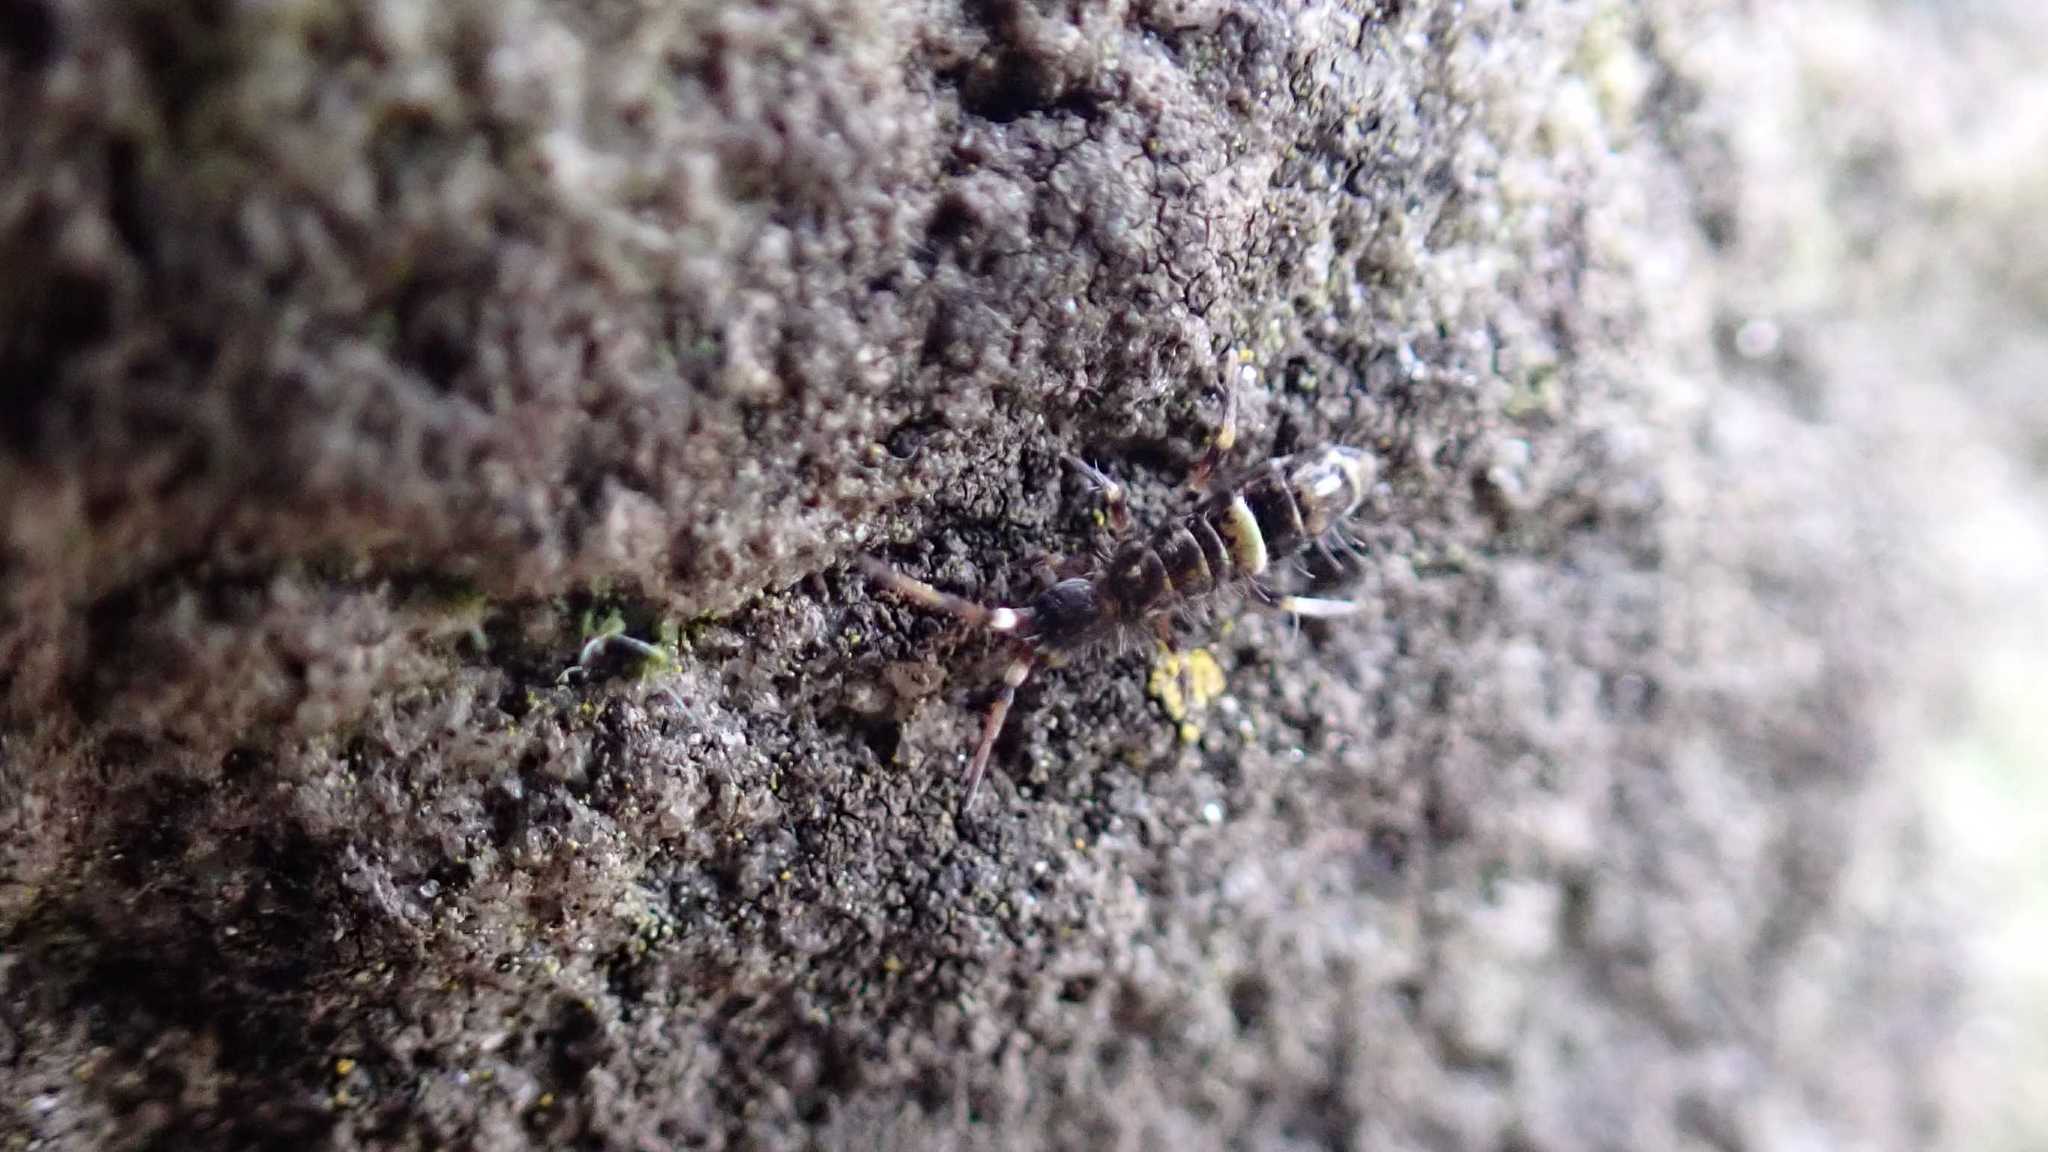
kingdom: Animalia
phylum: Arthropoda
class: Collembola
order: Entomobryomorpha
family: Orchesellidae
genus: Orchesella
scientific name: Orchesella cincta
